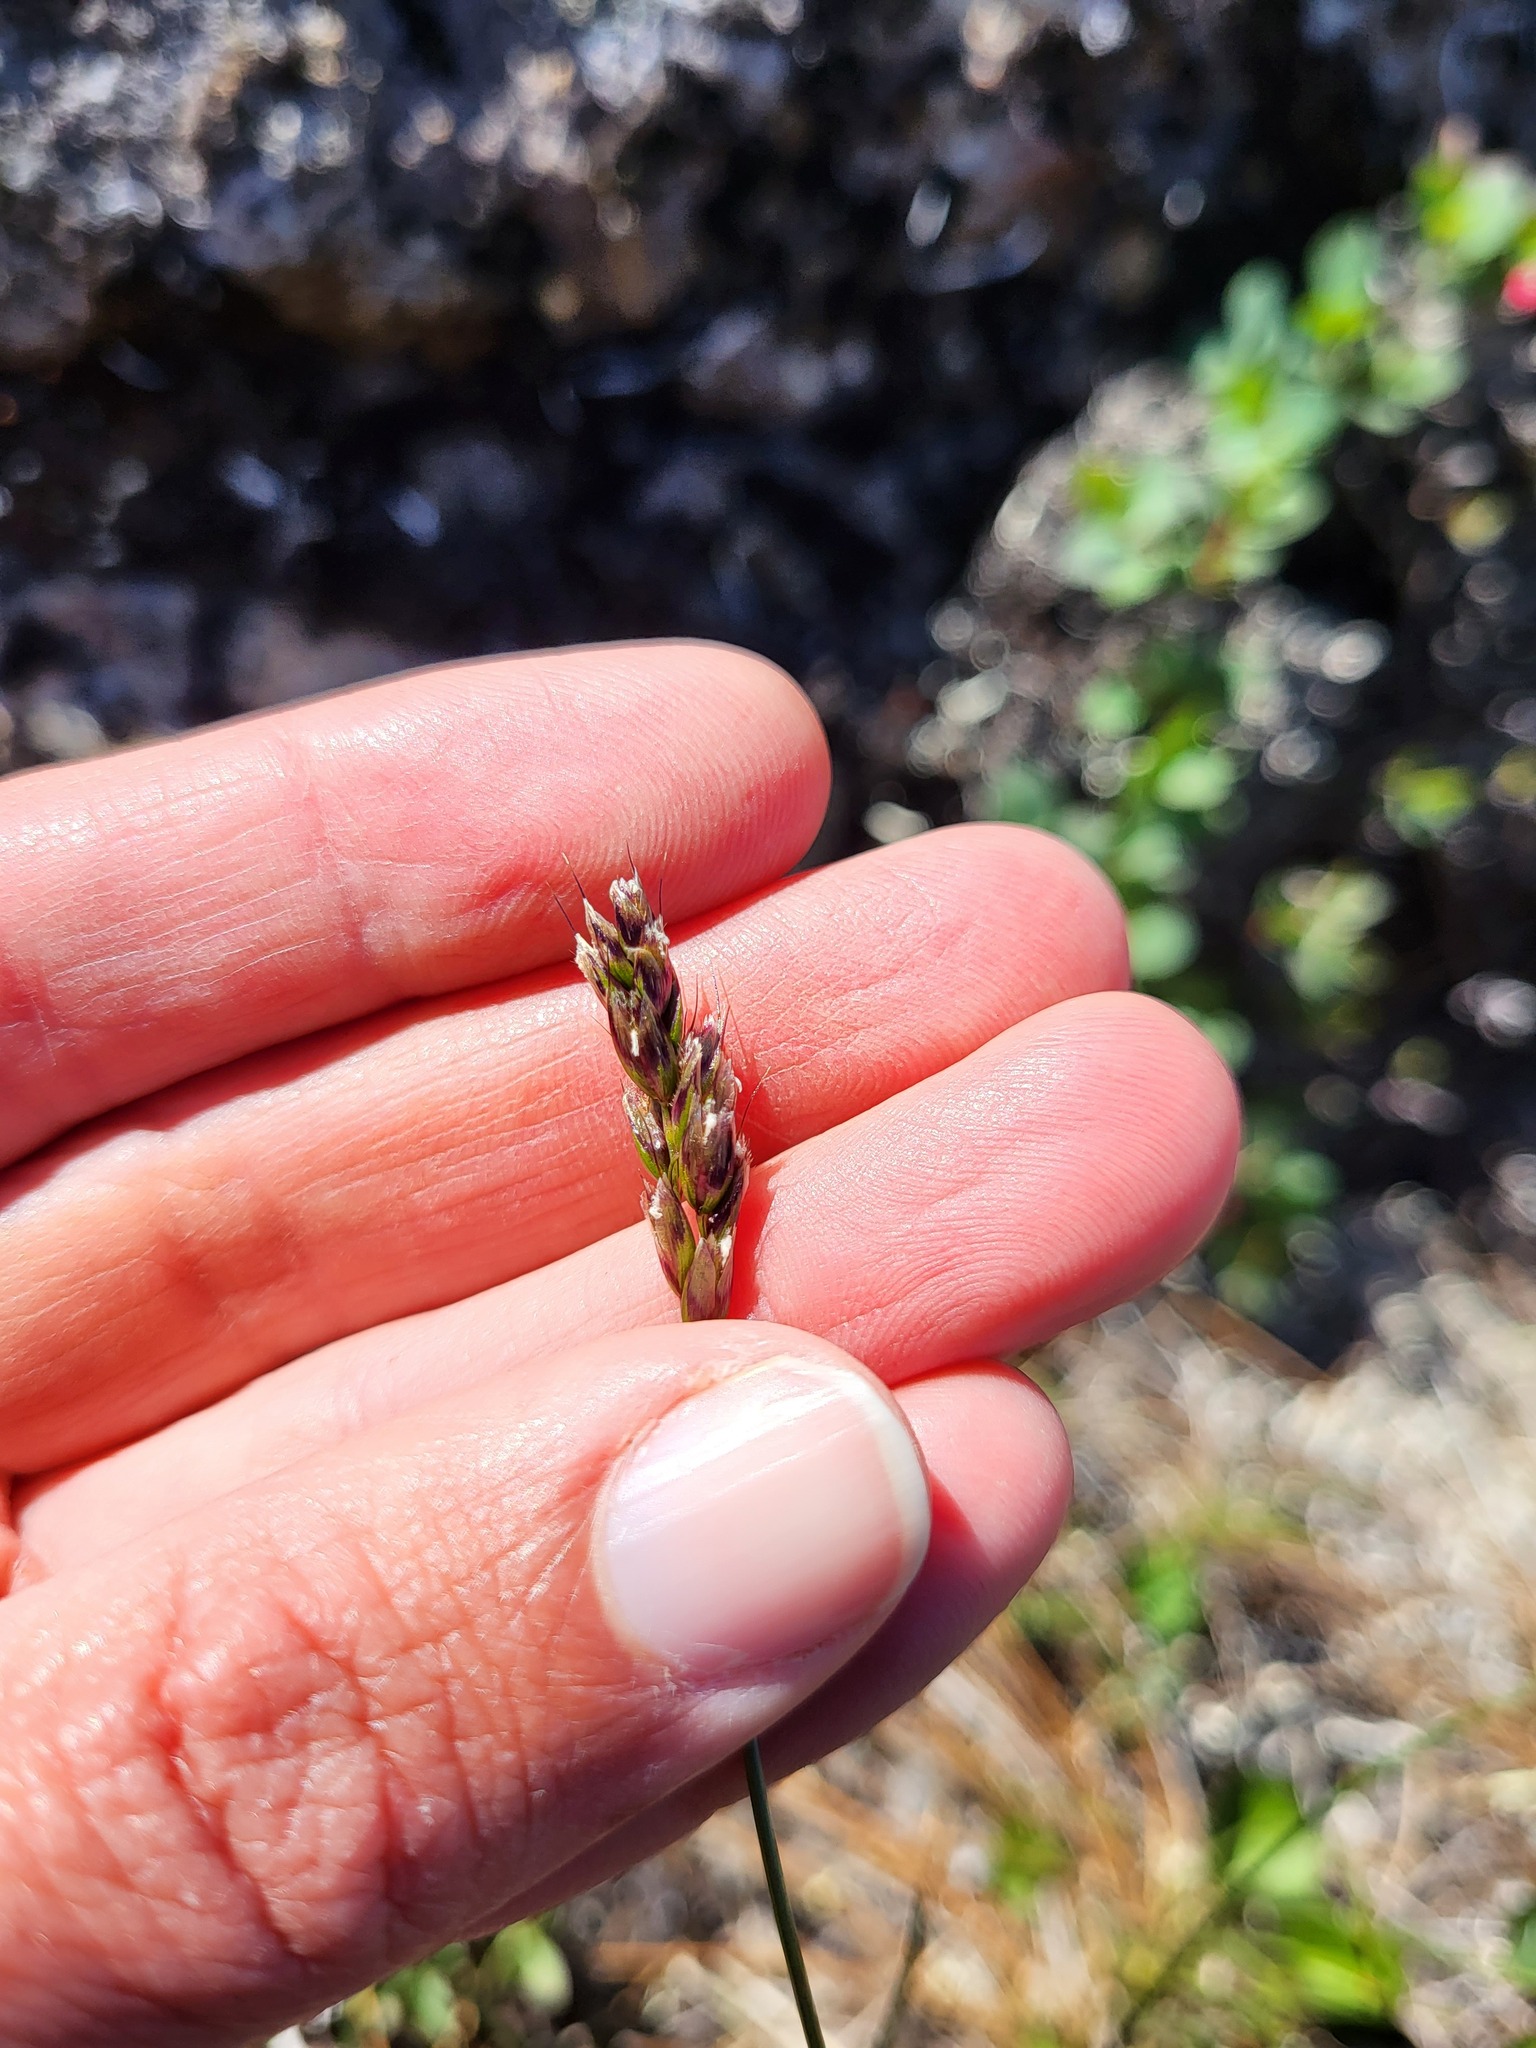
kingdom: Plantae
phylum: Tracheophyta
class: Liliopsida
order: Poales
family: Poaceae
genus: Anthoxanthum
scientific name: Anthoxanthum monticola
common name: Alpine sweetgrass
